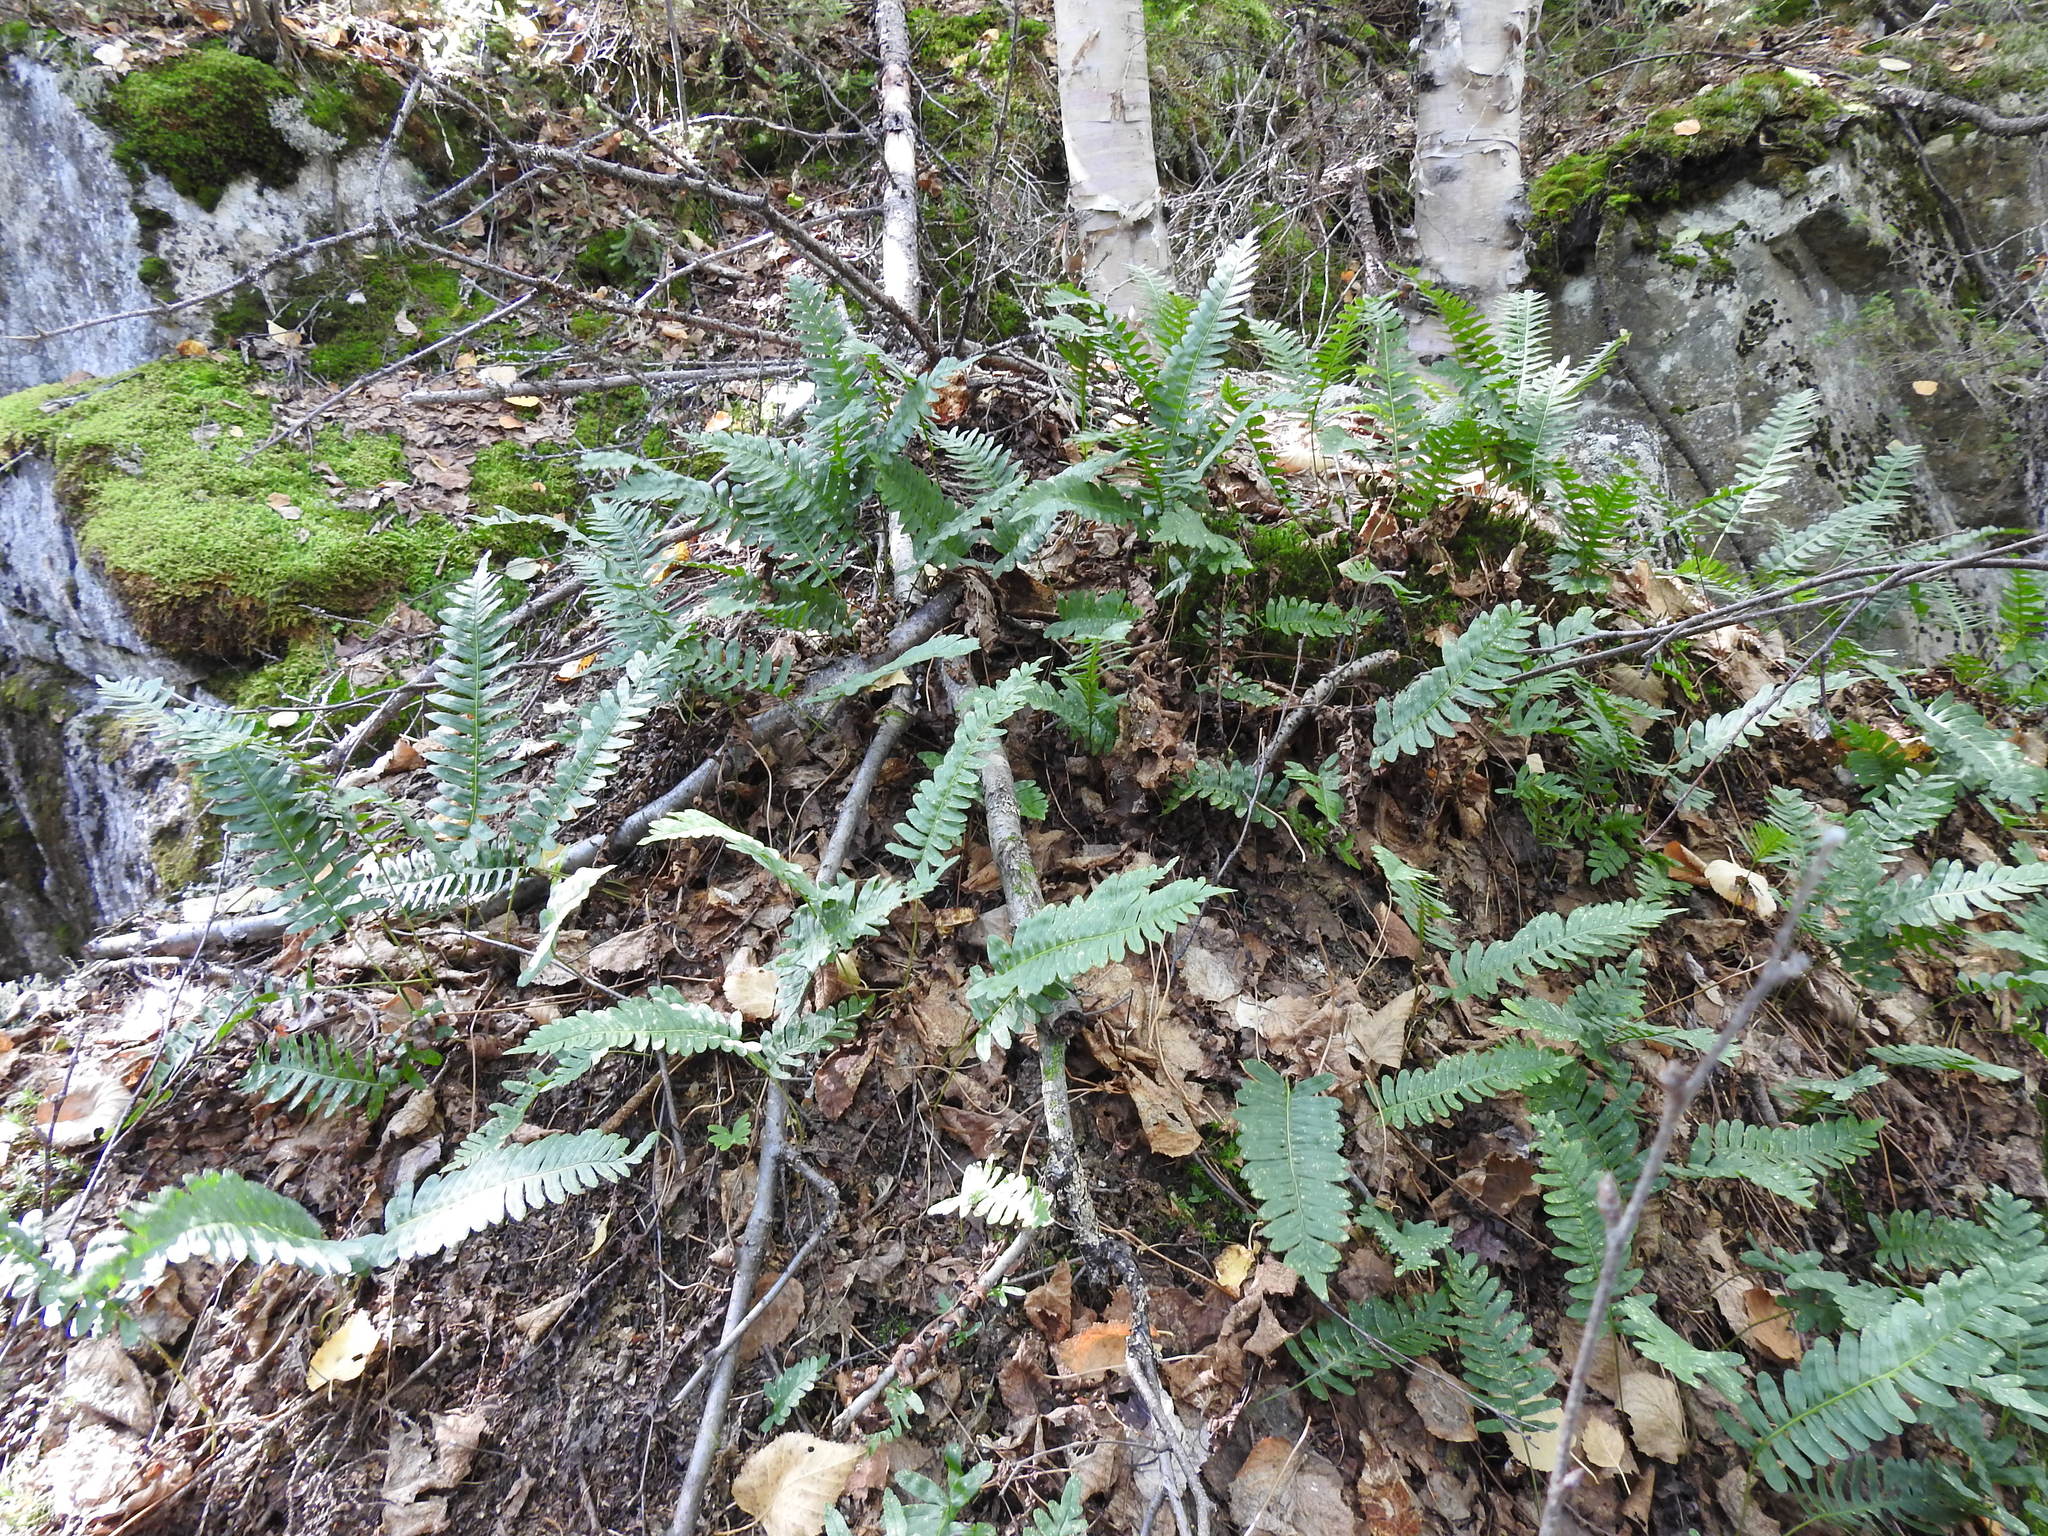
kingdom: Plantae
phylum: Tracheophyta
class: Polypodiopsida
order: Polypodiales
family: Polypodiaceae
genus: Polypodium
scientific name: Polypodium virginianum
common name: American wall fern
